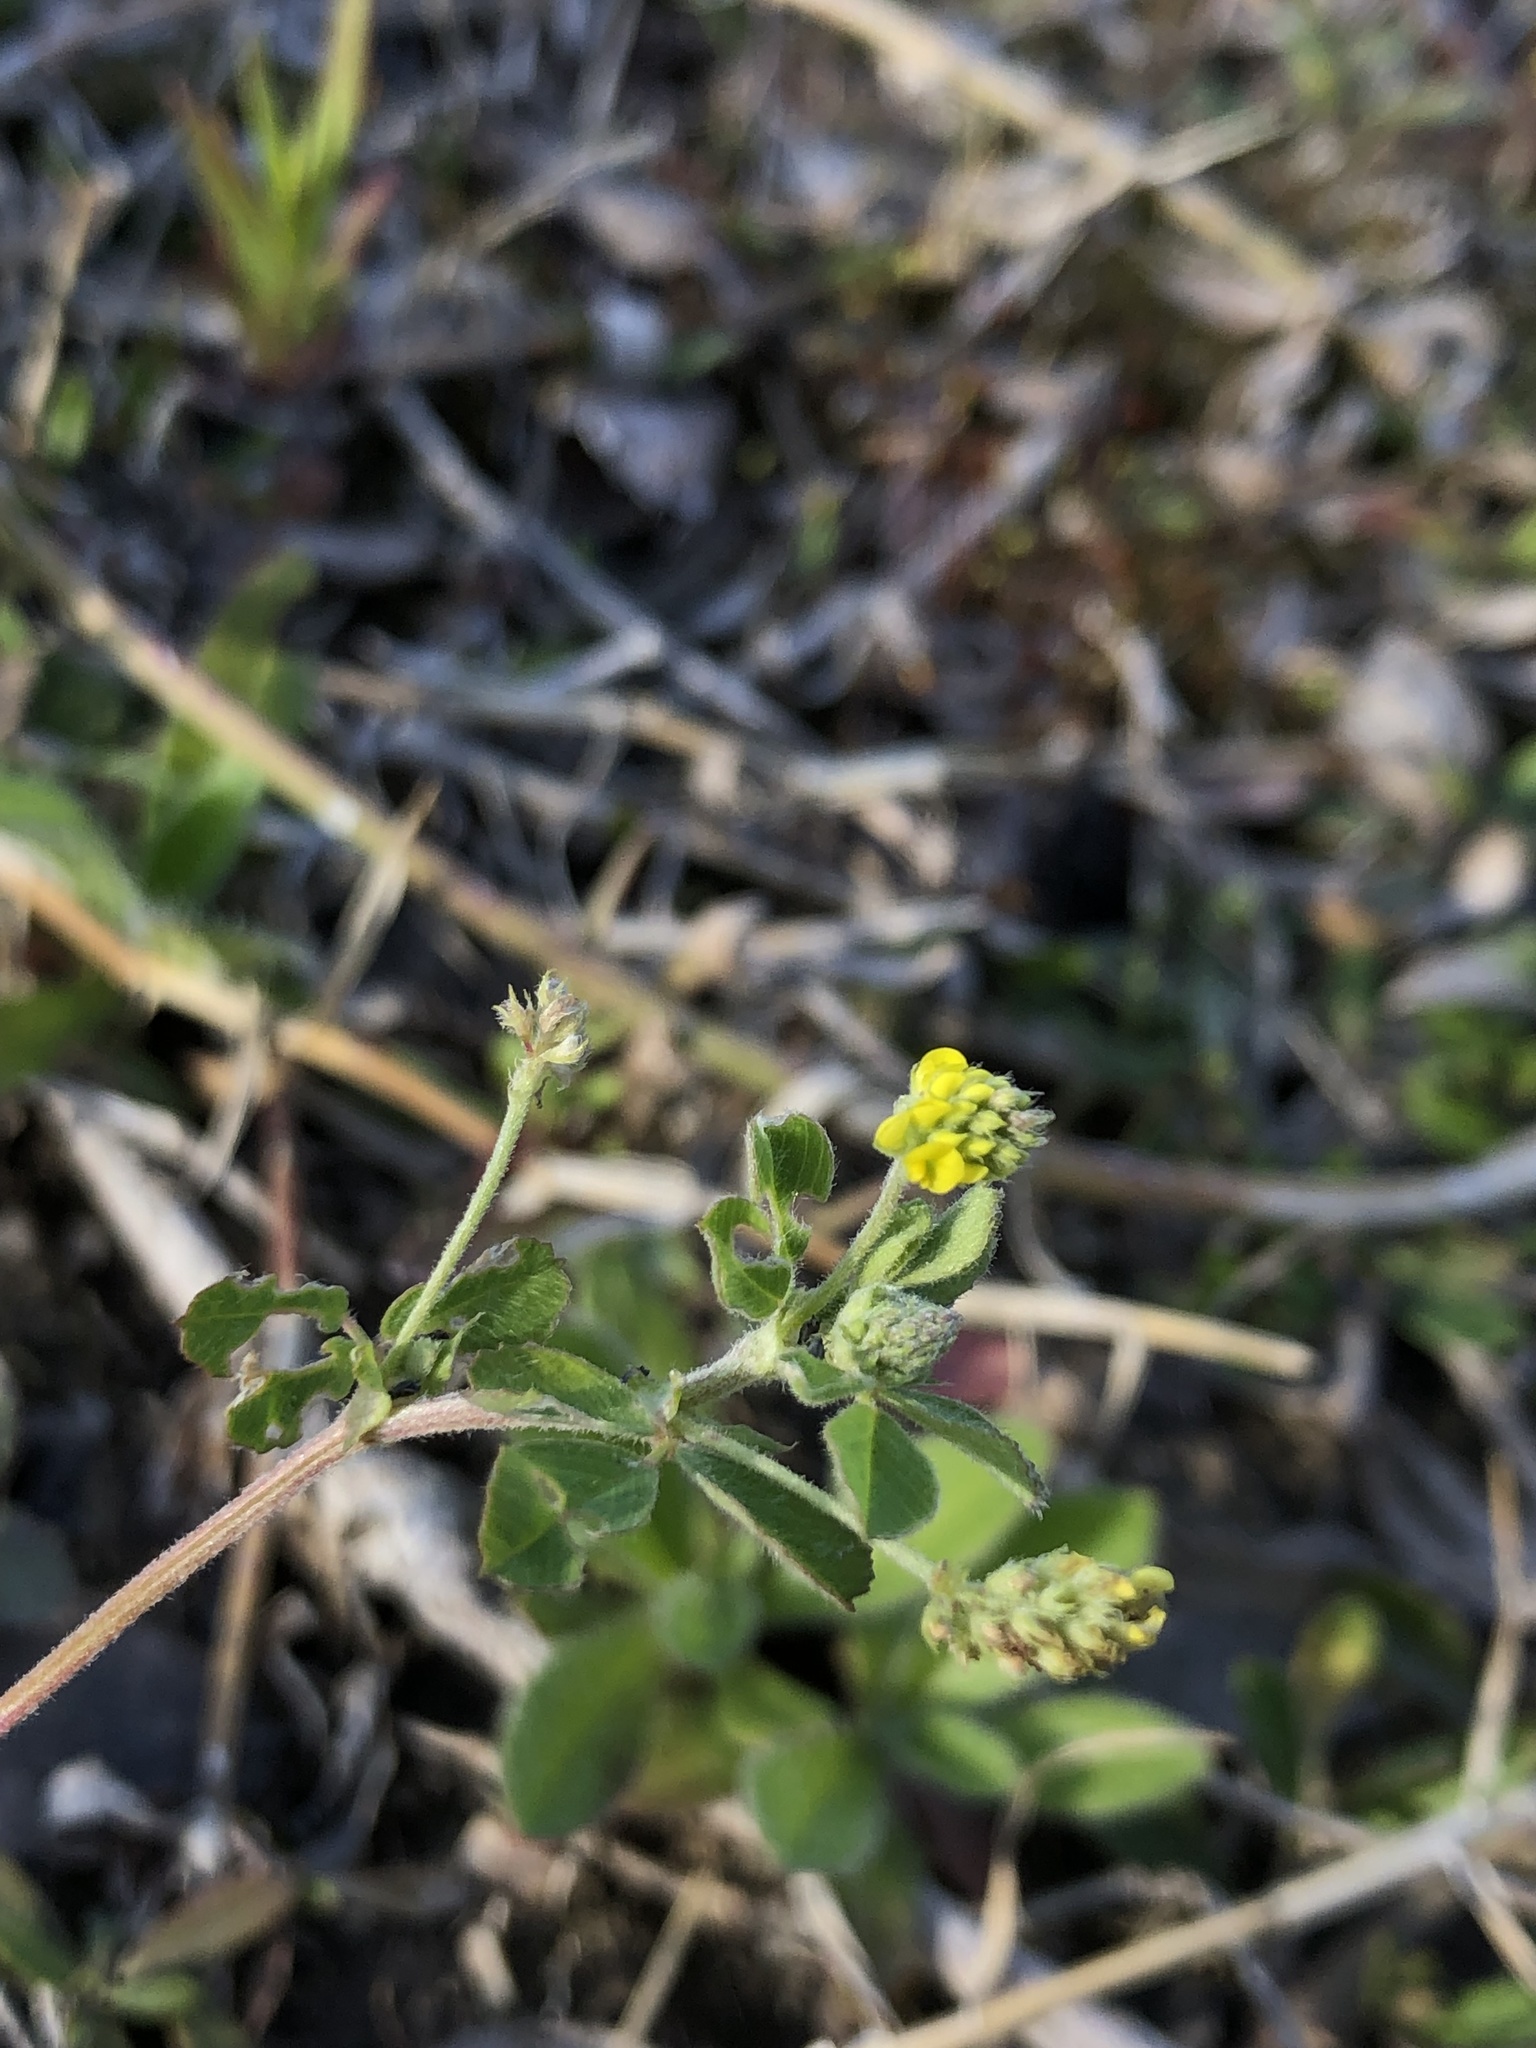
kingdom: Plantae
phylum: Tracheophyta
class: Magnoliopsida
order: Fabales
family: Fabaceae
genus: Medicago
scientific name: Medicago lupulina
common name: Black medick
